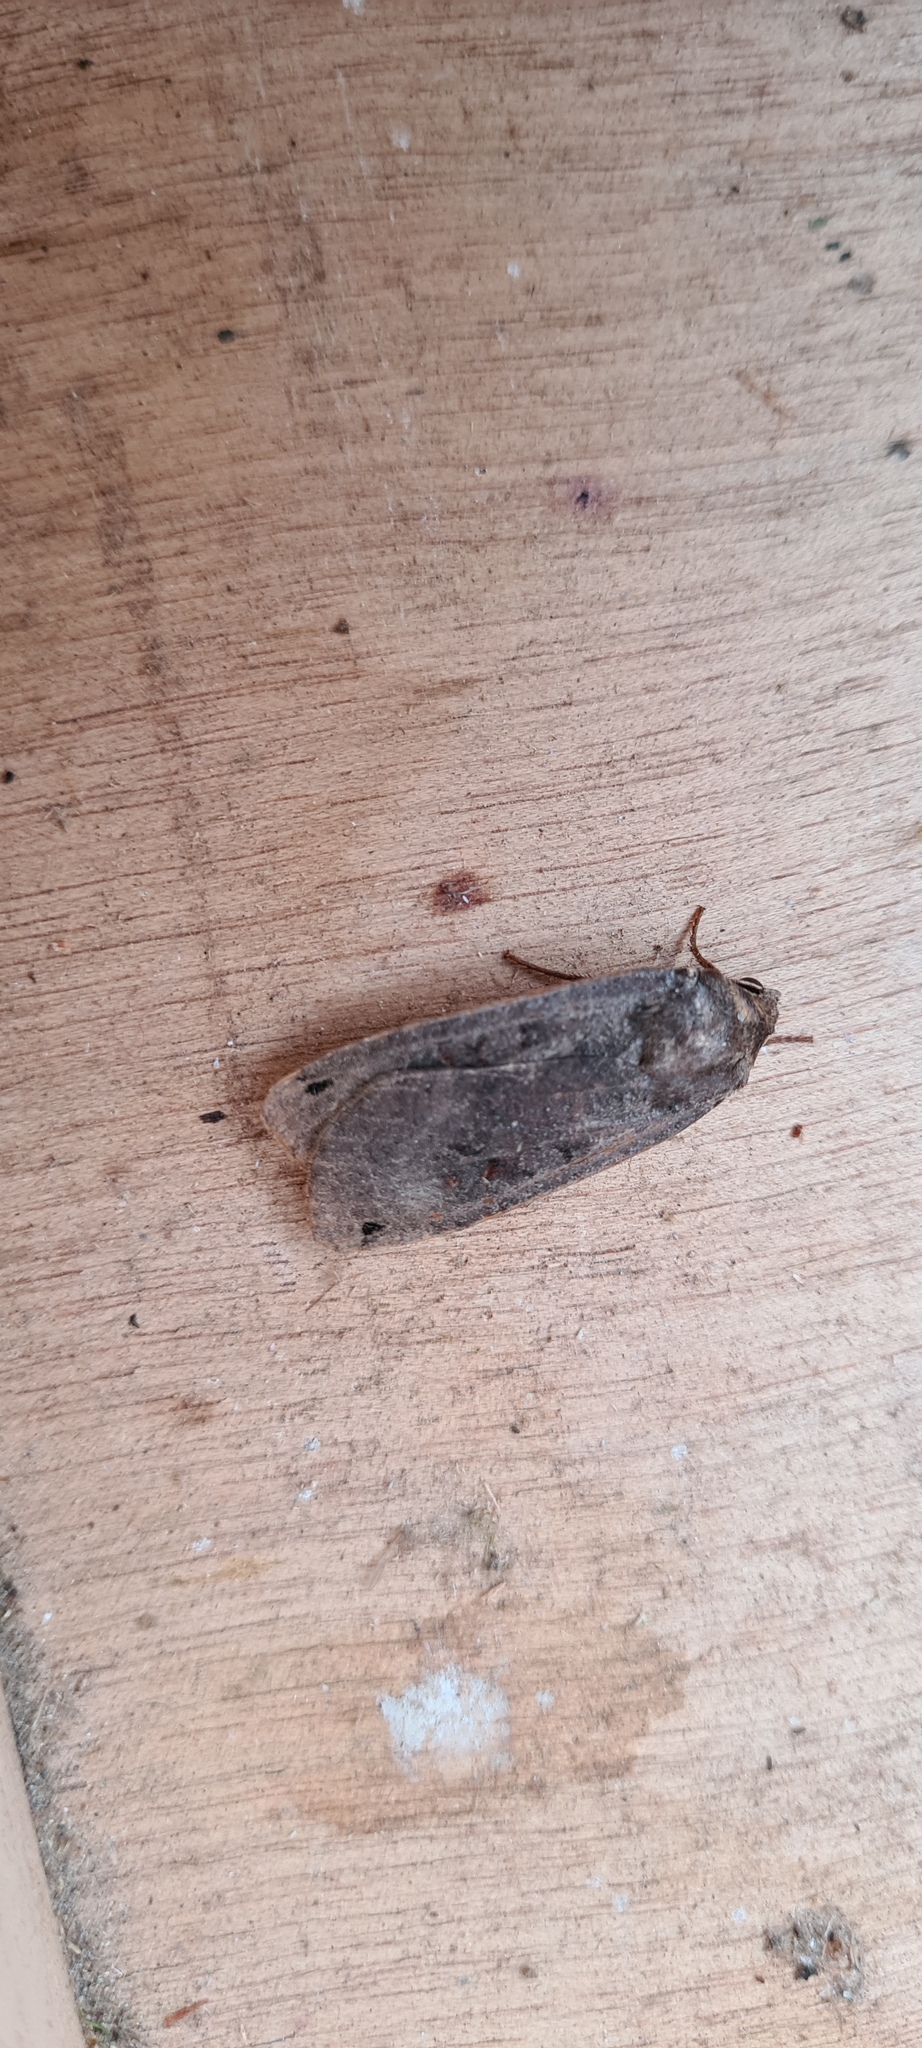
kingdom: Animalia
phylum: Arthropoda
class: Insecta
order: Lepidoptera
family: Noctuidae
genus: Noctua
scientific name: Noctua pronuba
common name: Large yellow underwing
